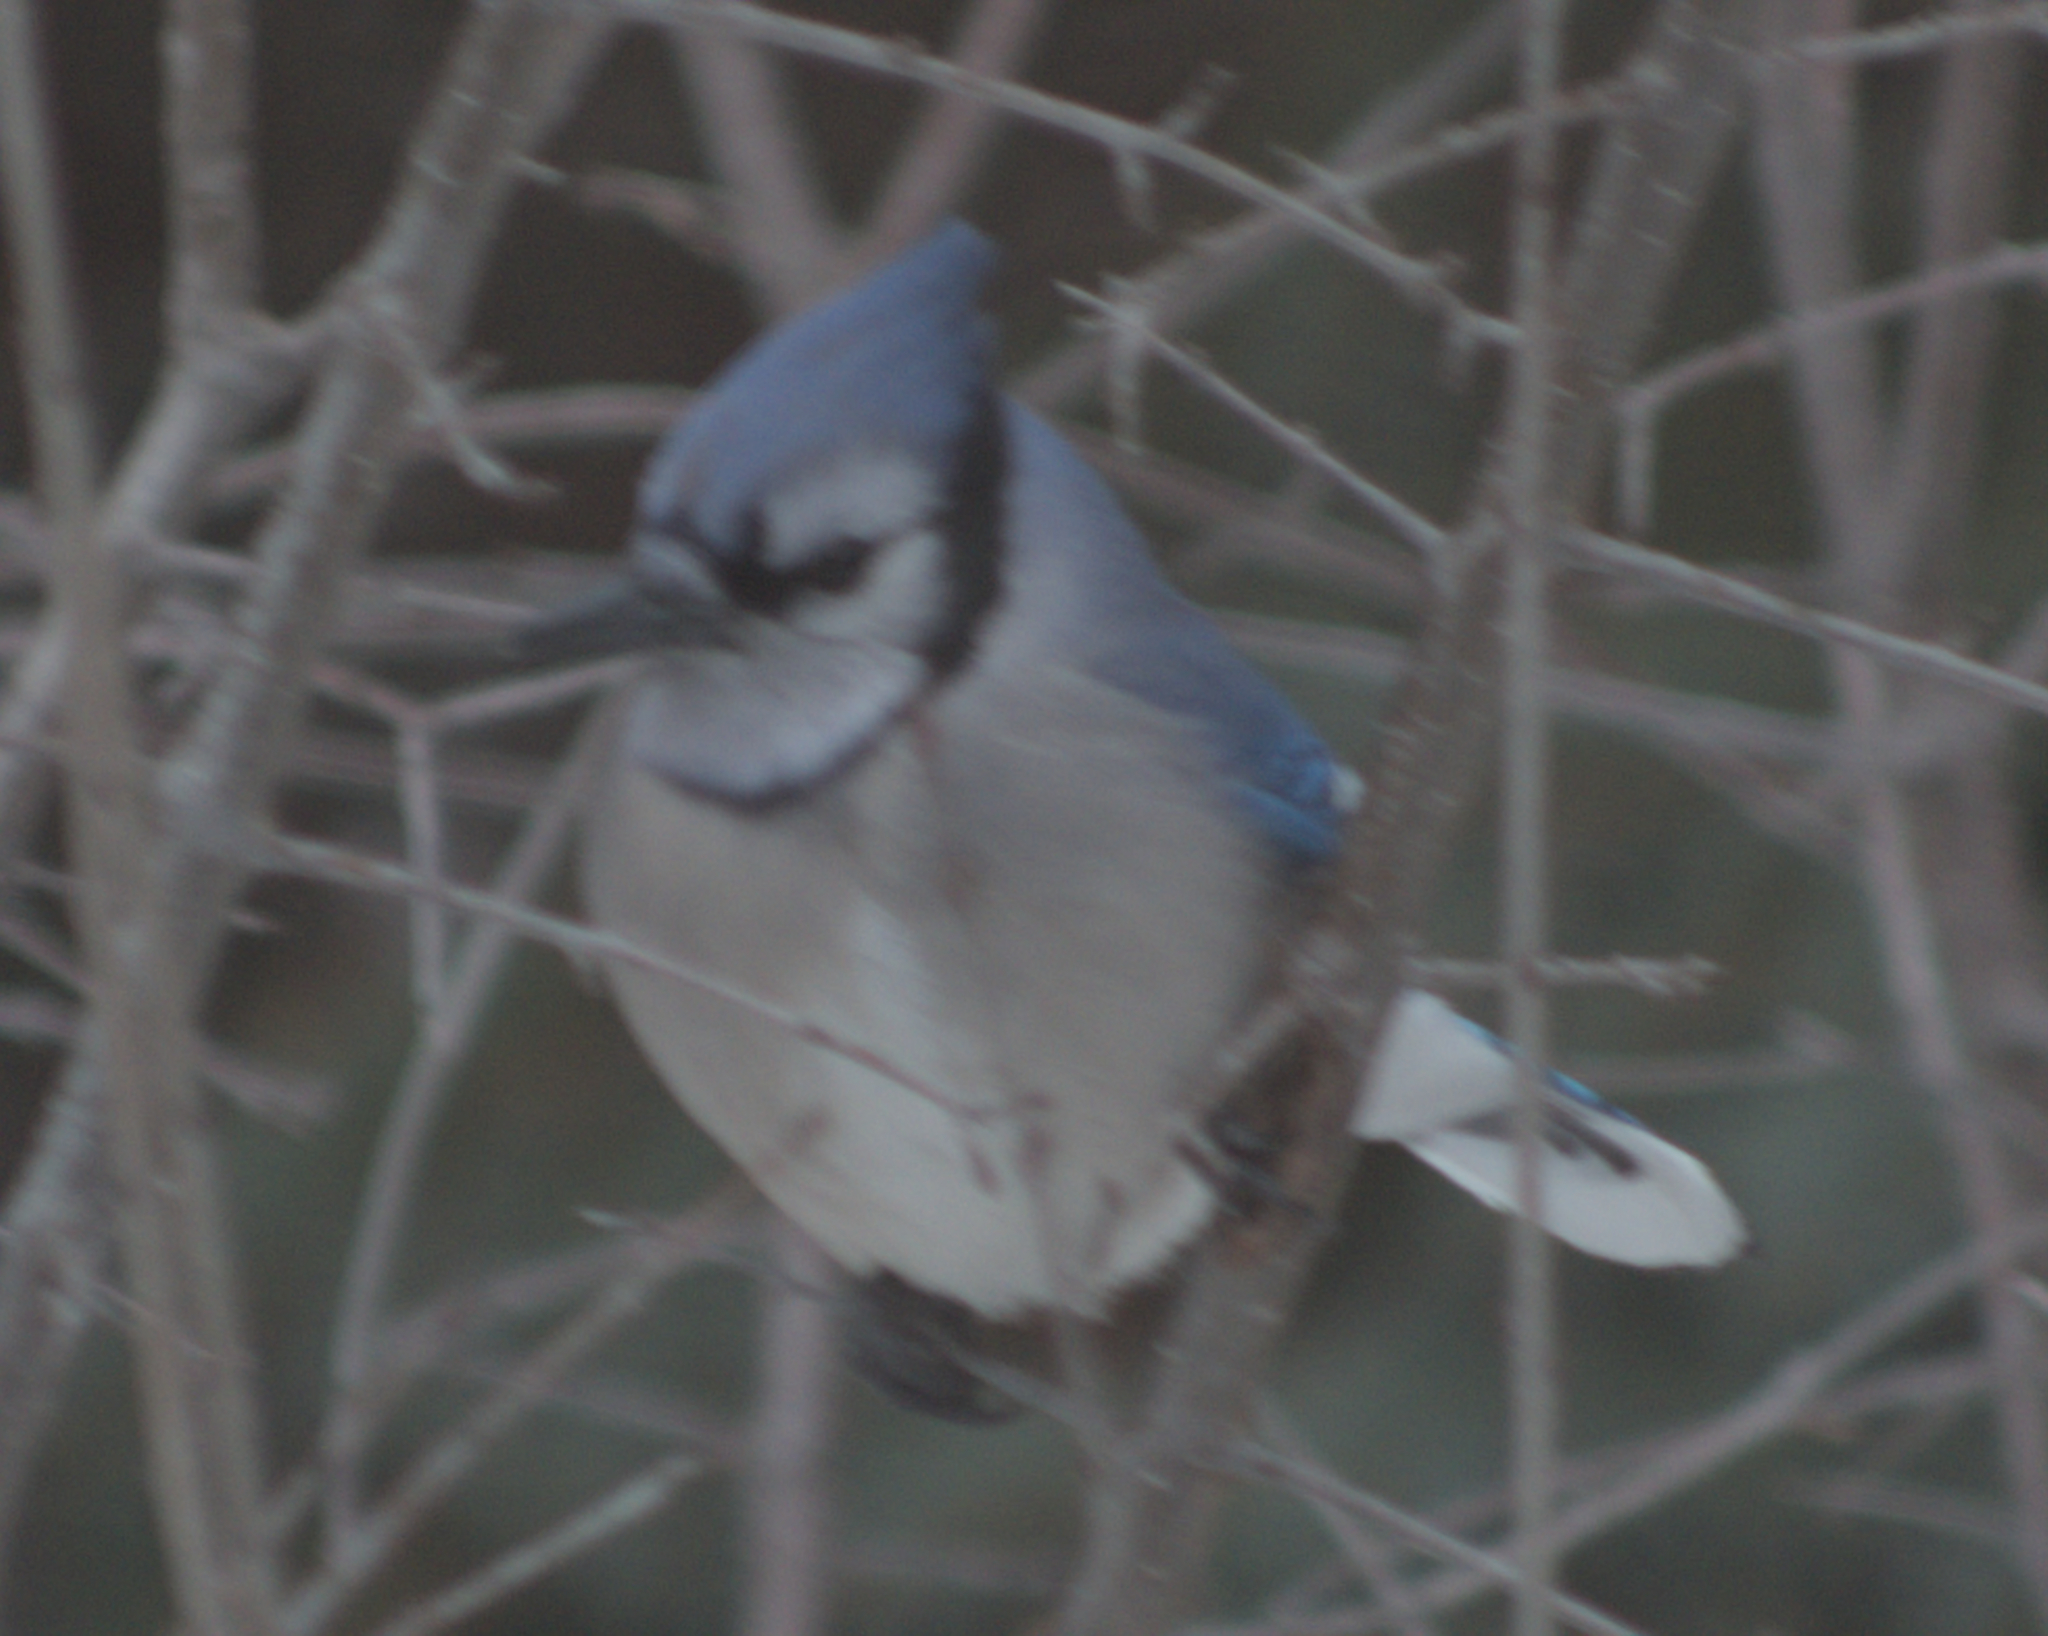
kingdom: Animalia
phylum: Chordata
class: Aves
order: Passeriformes
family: Corvidae
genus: Cyanocitta
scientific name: Cyanocitta cristata
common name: Blue jay
